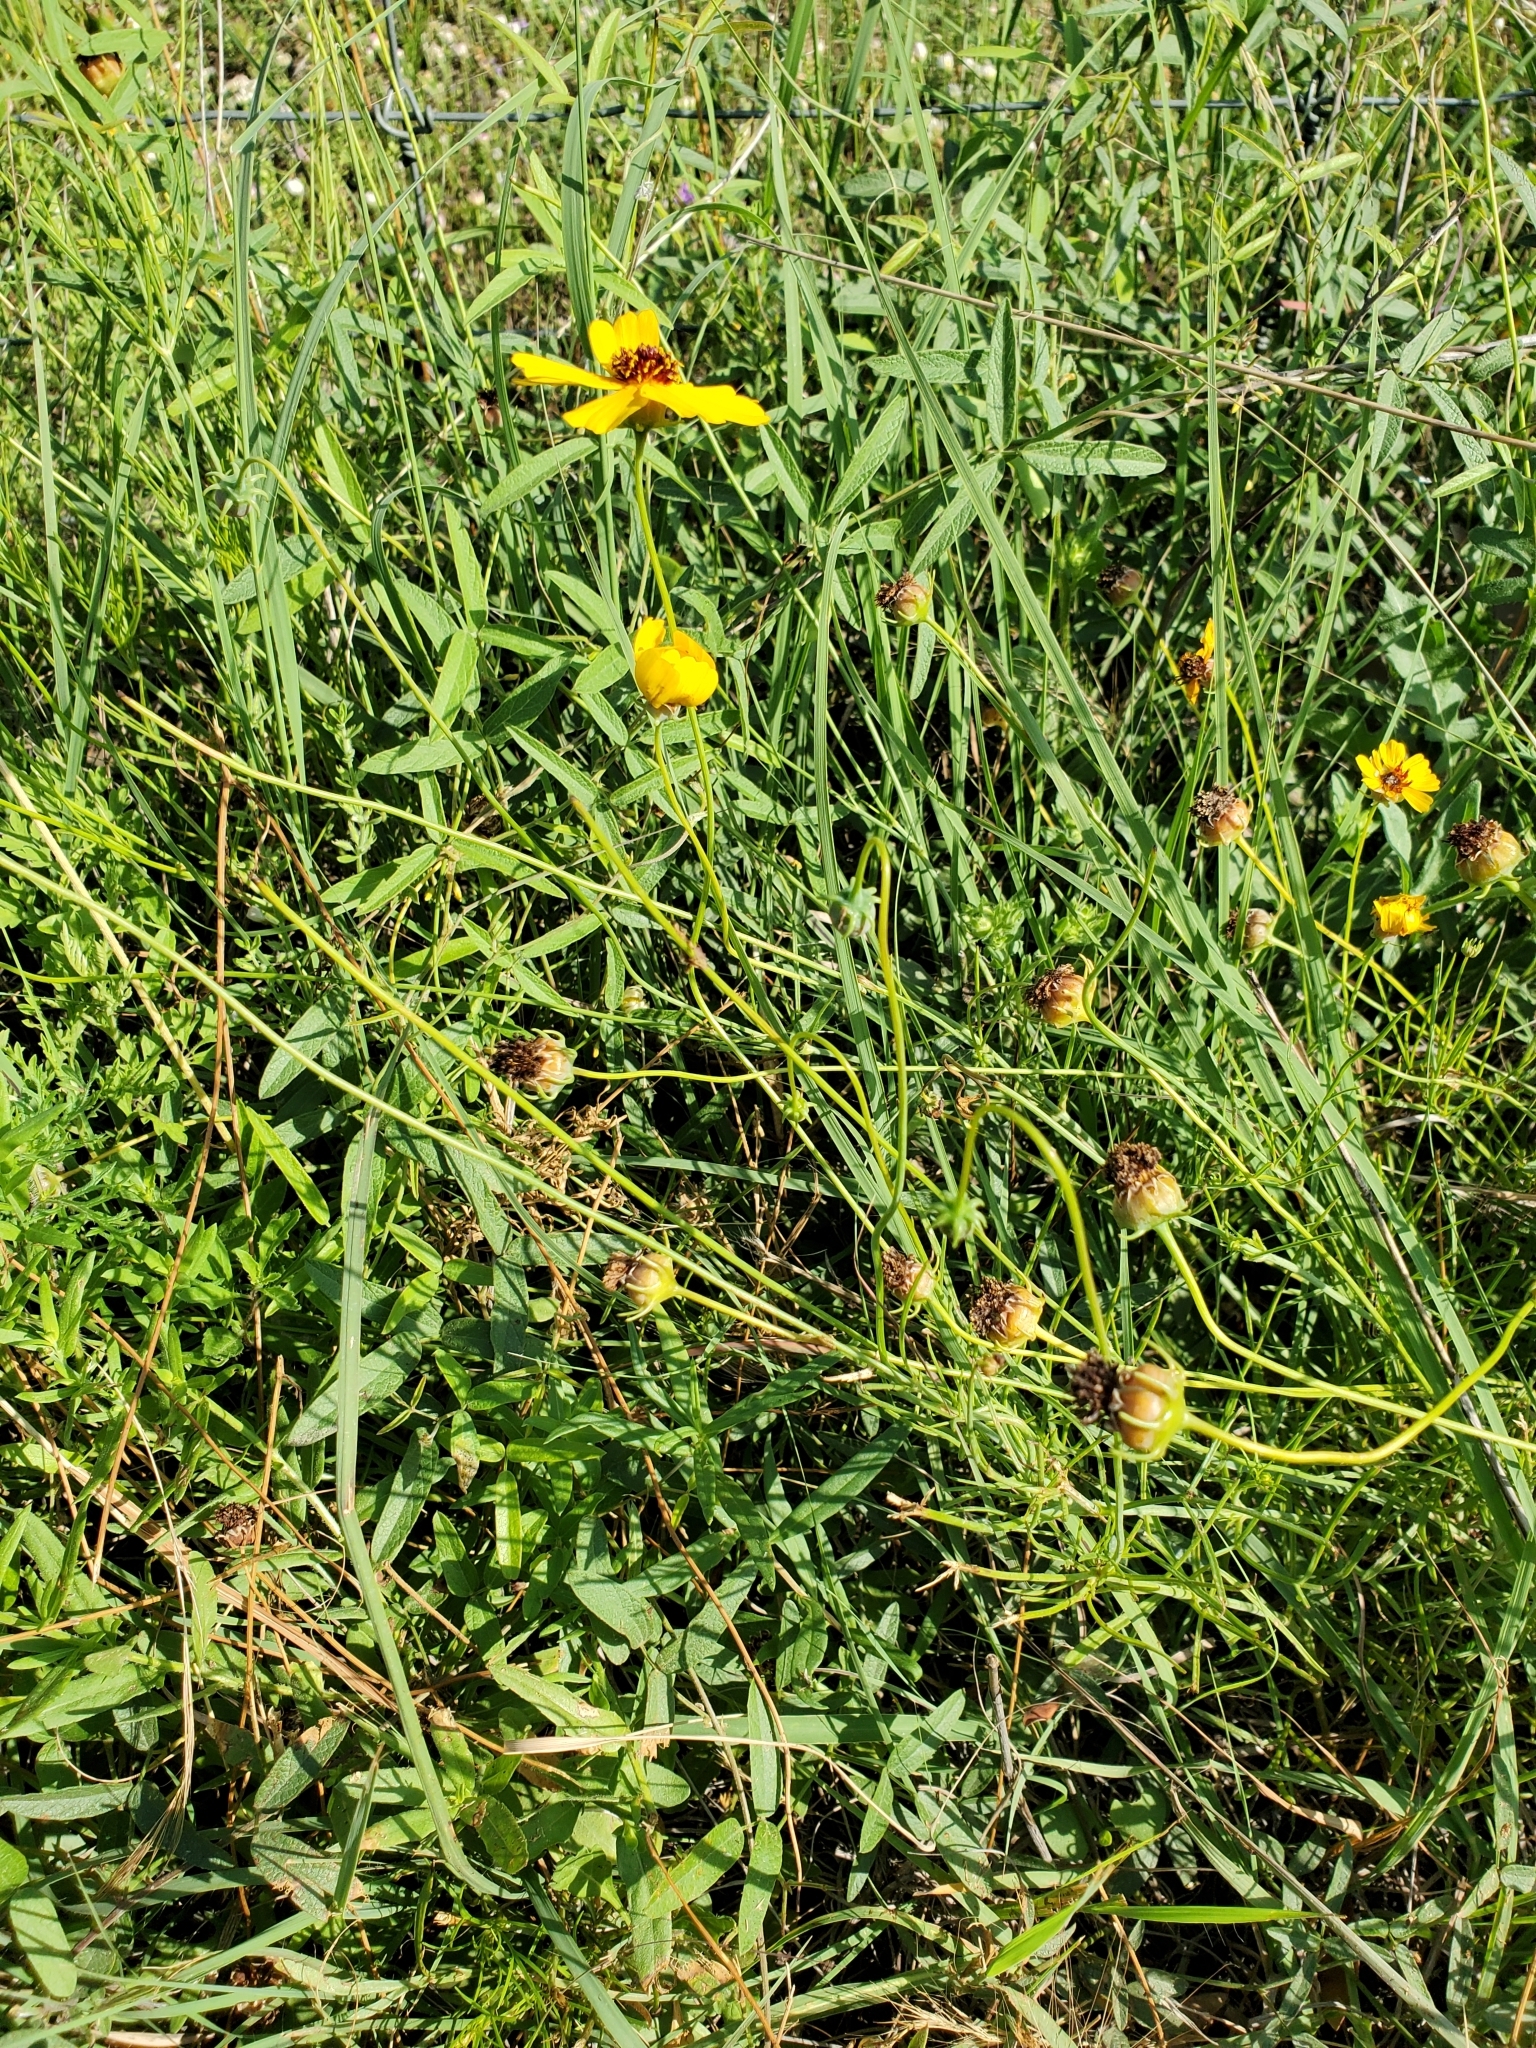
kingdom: Plantae
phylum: Tracheophyta
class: Magnoliopsida
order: Asterales
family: Asteraceae
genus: Thelesperma
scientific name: Thelesperma filifolium
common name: Stiff greenthread
